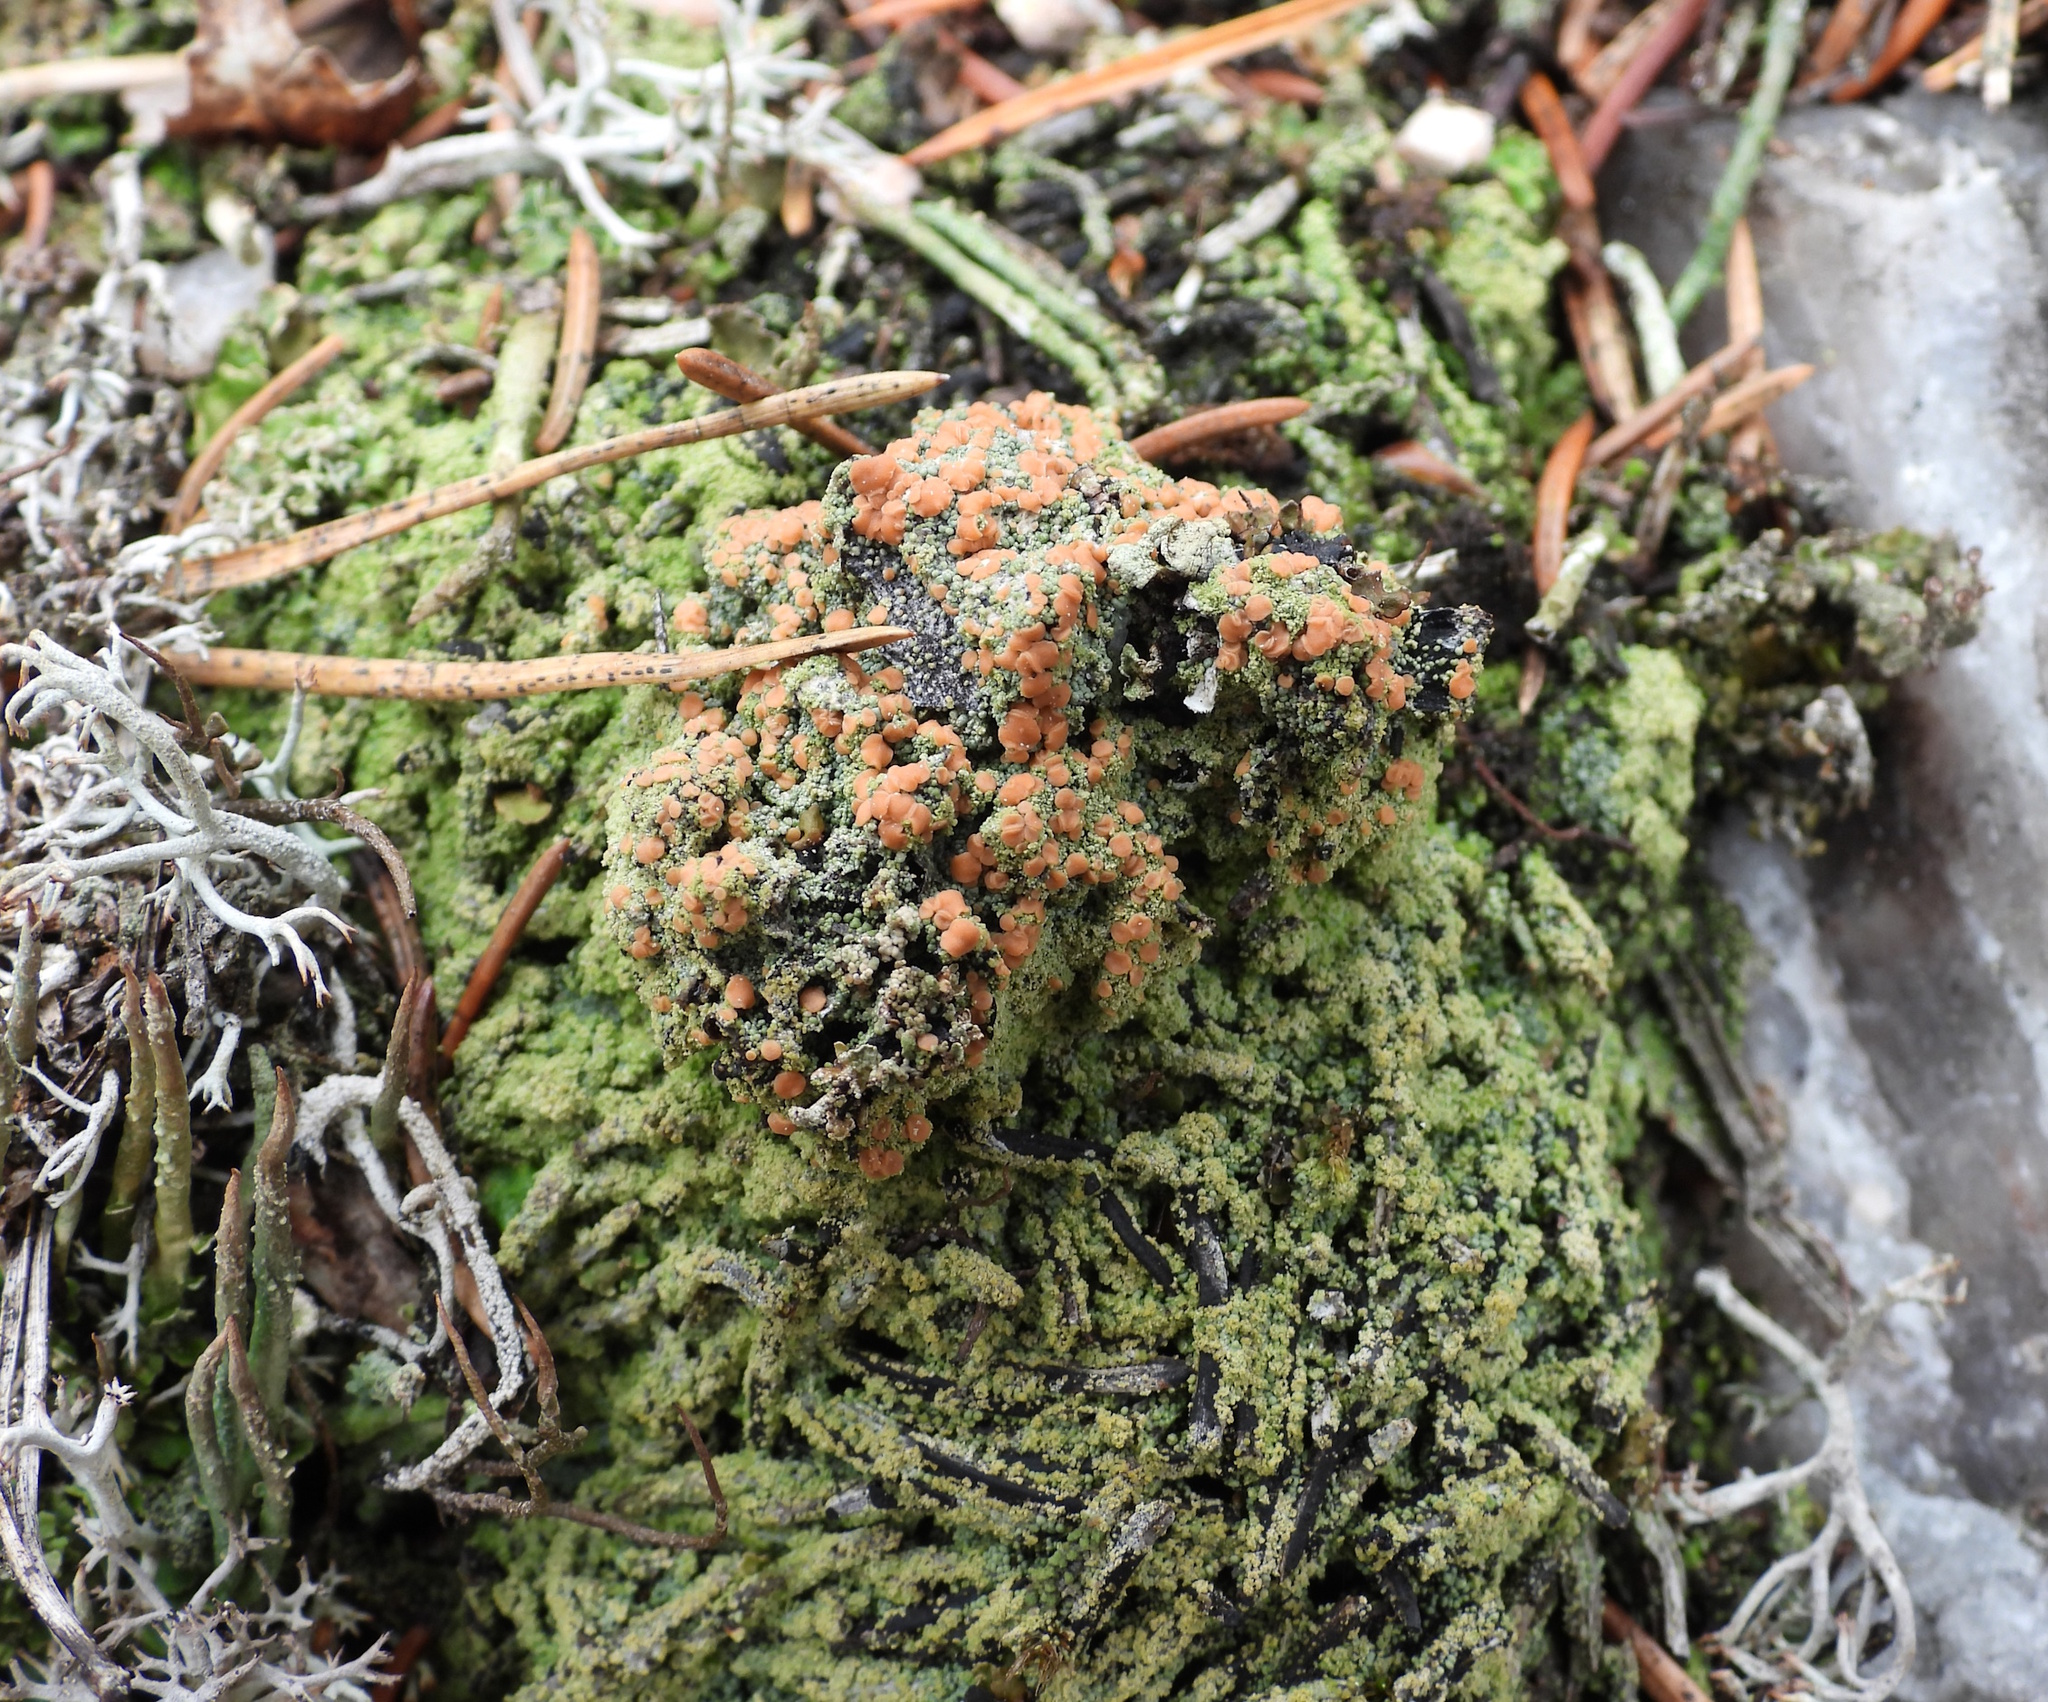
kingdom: Fungi
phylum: Ascomycota
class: Lecanoromycetes
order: Baeomycetales
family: Trapeliaceae
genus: Trapeliopsis
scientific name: Trapeliopsis granulosa
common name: Granular mottled-disk lichen
